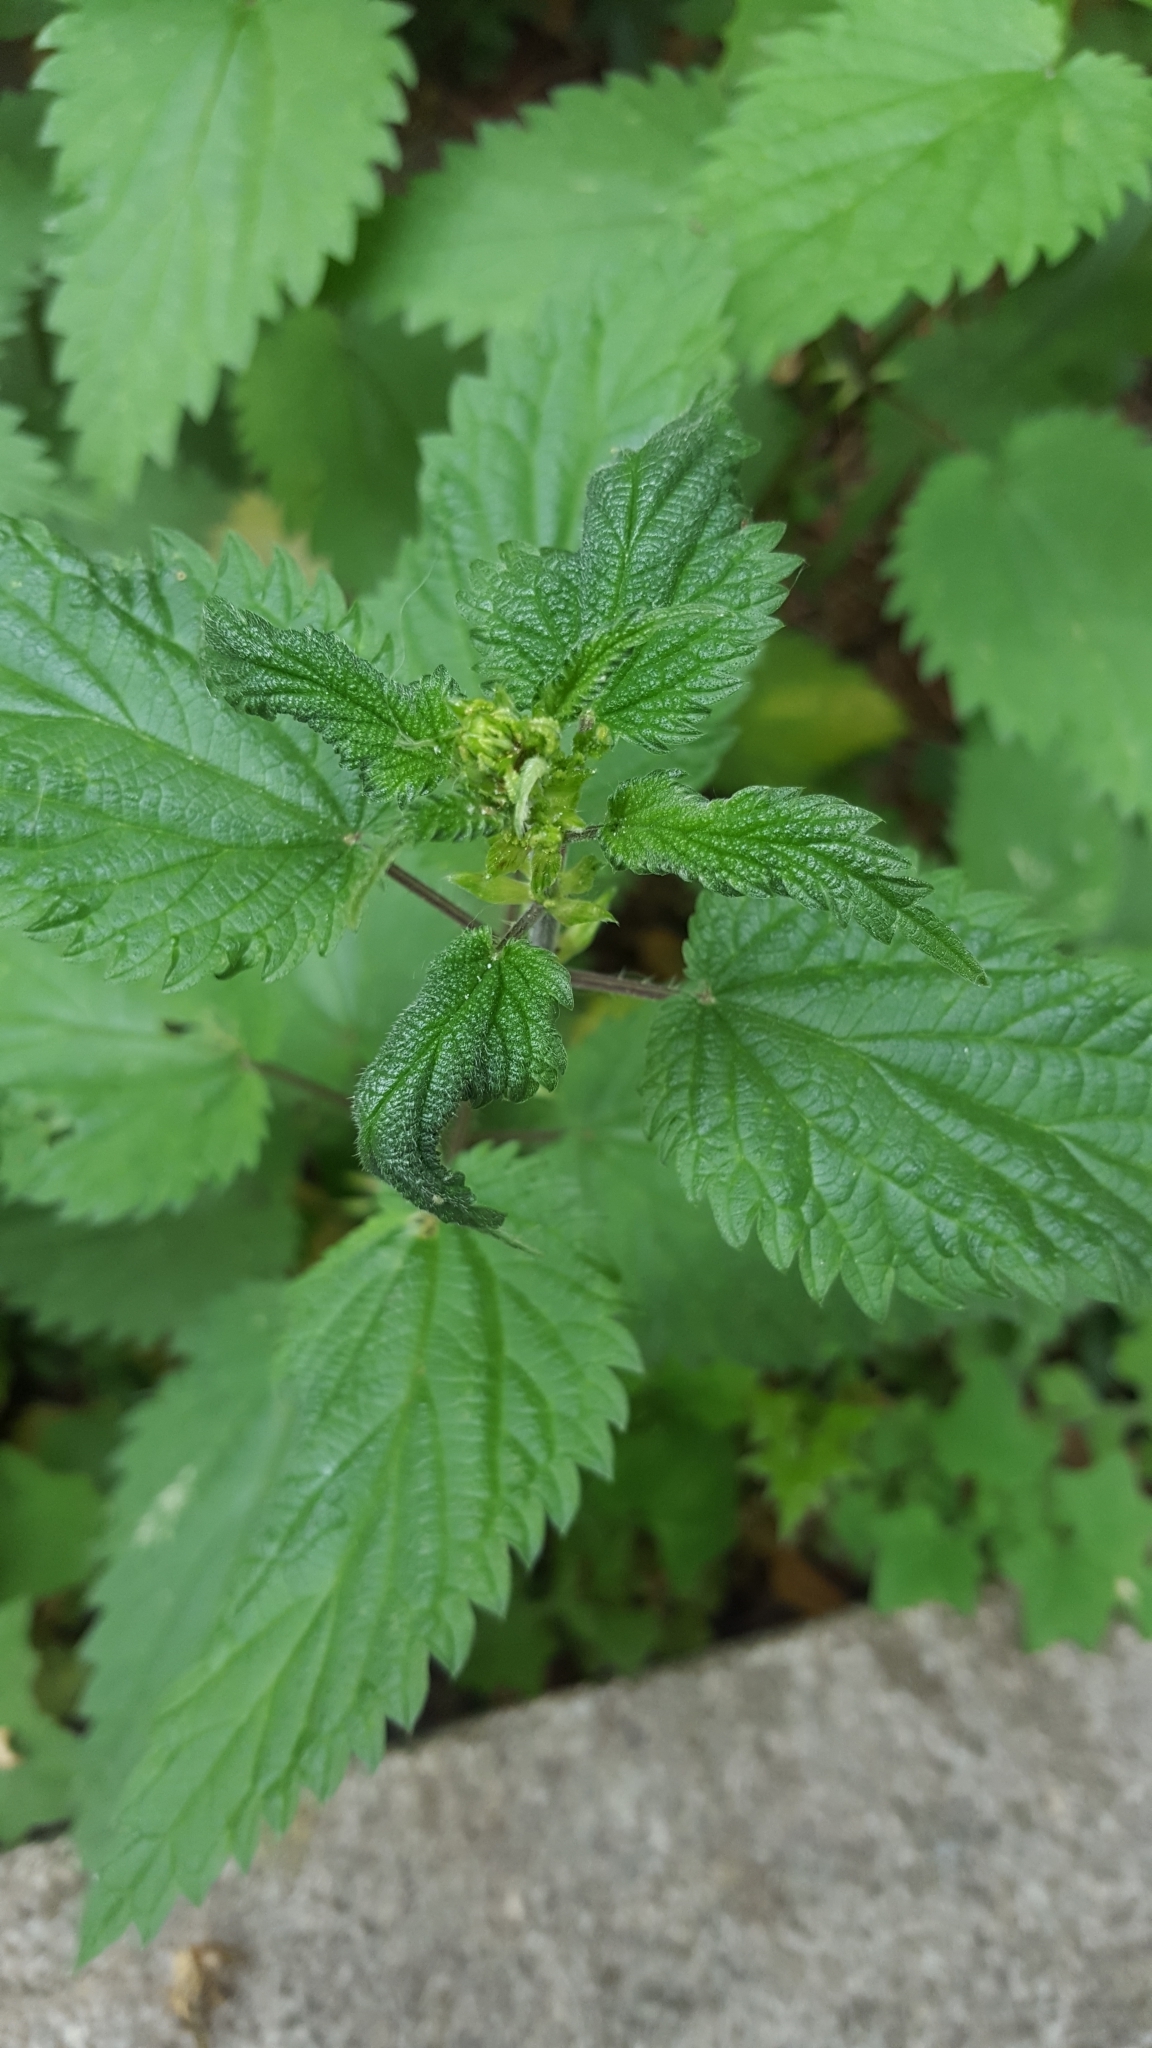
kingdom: Plantae
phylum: Tracheophyta
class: Magnoliopsida
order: Rosales
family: Urticaceae
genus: Urtica
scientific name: Urtica dioica
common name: Common nettle
